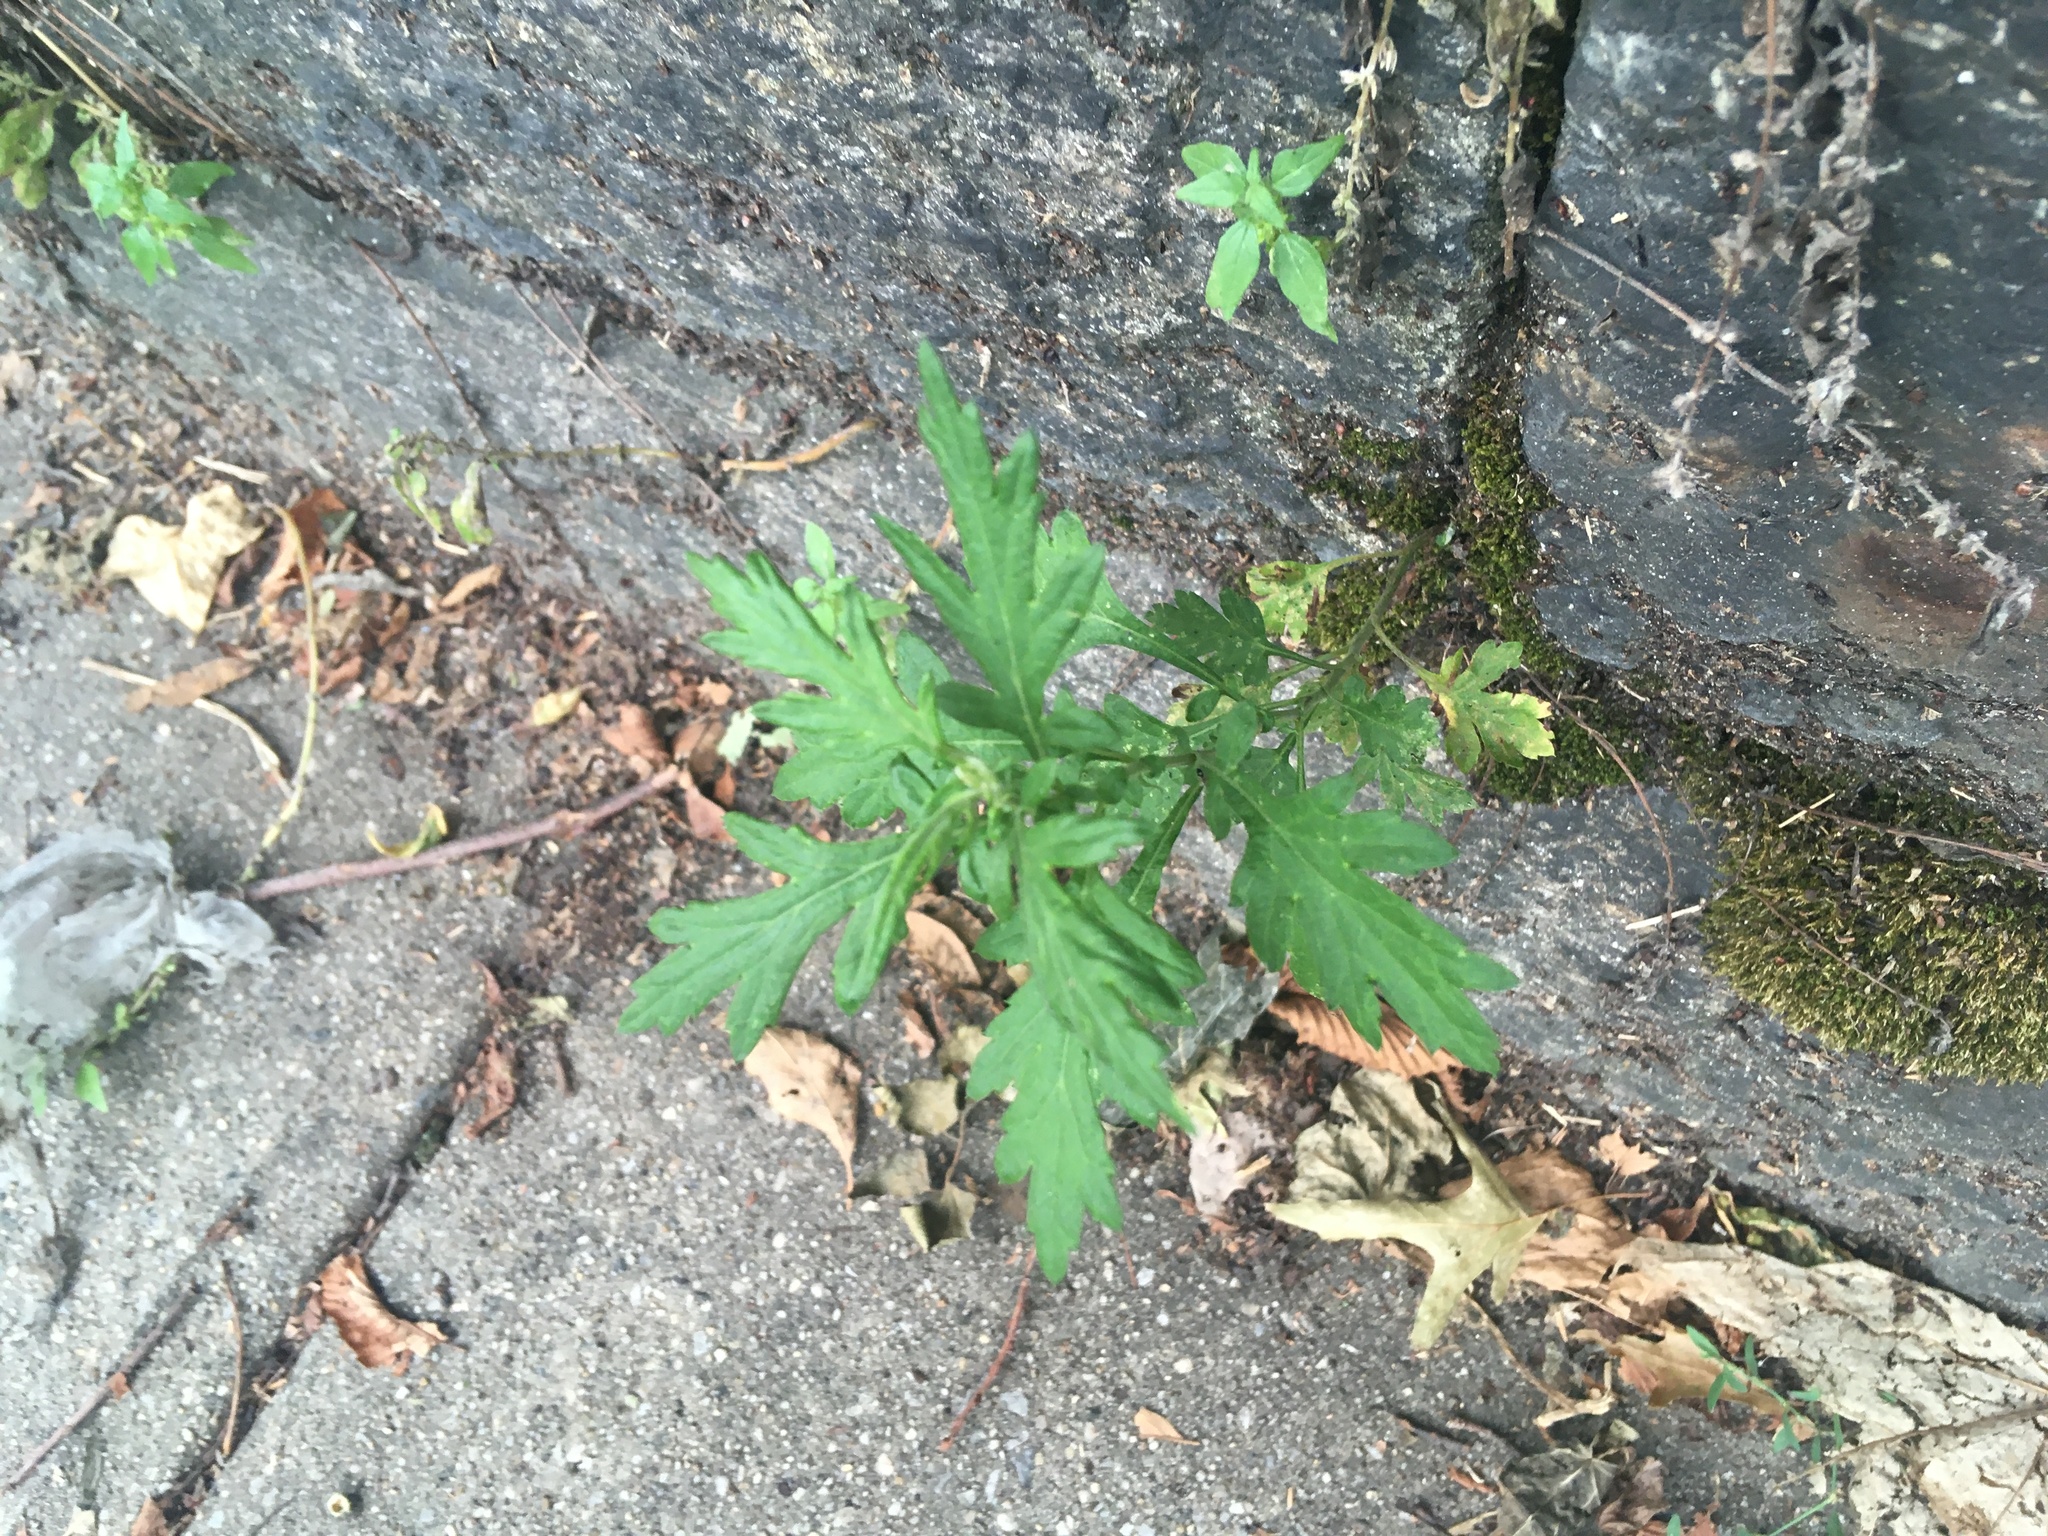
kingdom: Plantae
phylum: Tracheophyta
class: Magnoliopsida
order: Asterales
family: Asteraceae
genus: Artemisia
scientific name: Artemisia vulgaris
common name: Mugwort
